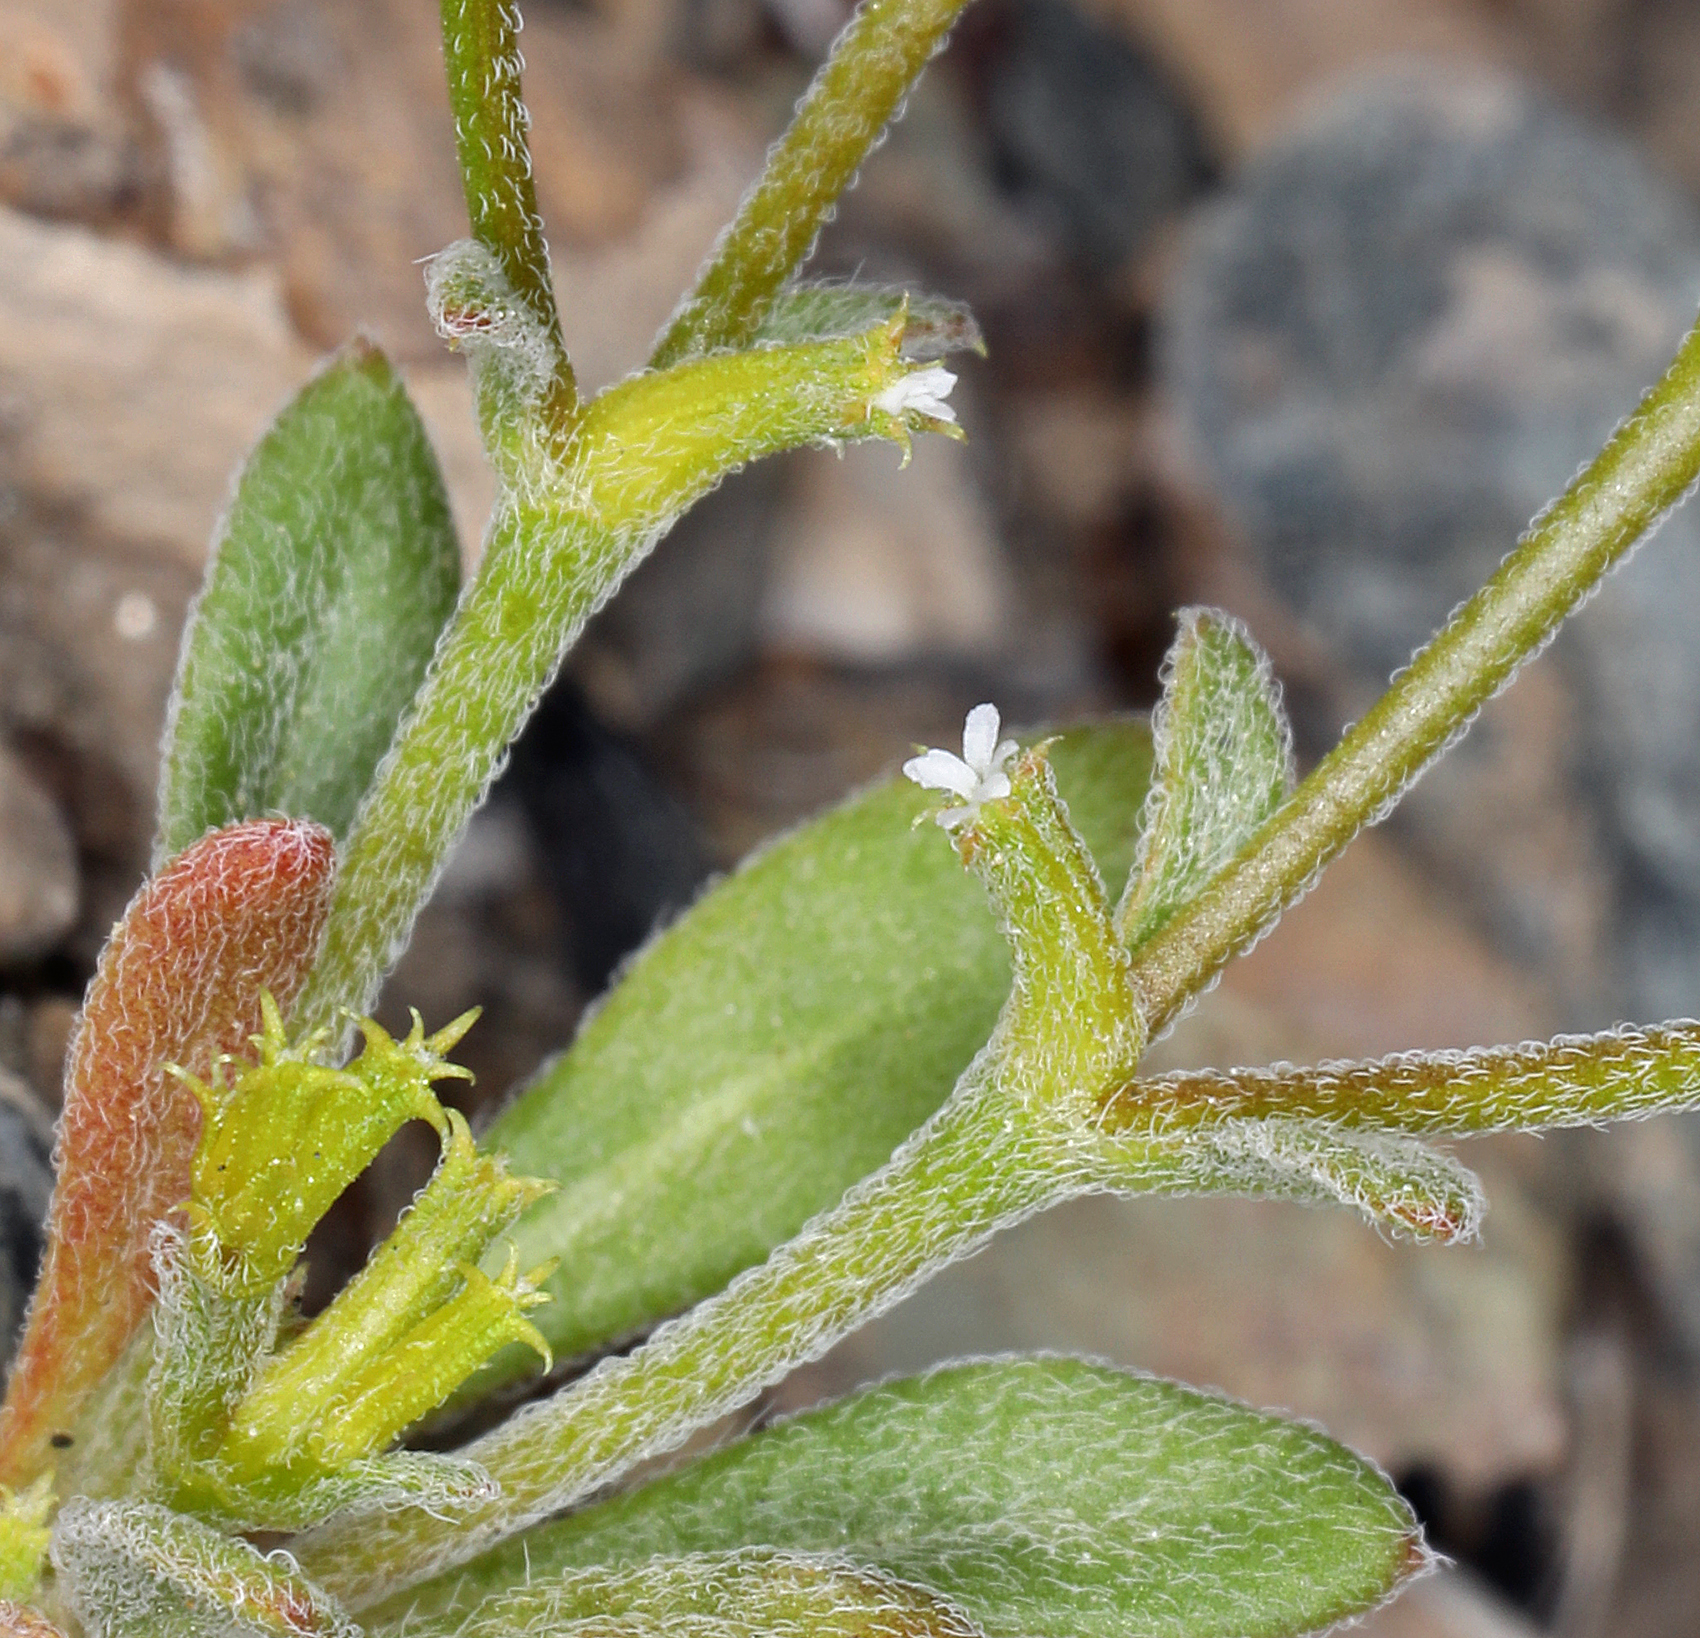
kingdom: Plantae
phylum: Tracheophyta
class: Magnoliopsida
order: Caryophyllales
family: Polygonaceae
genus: Chorizanthe
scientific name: Chorizanthe brevicornu
